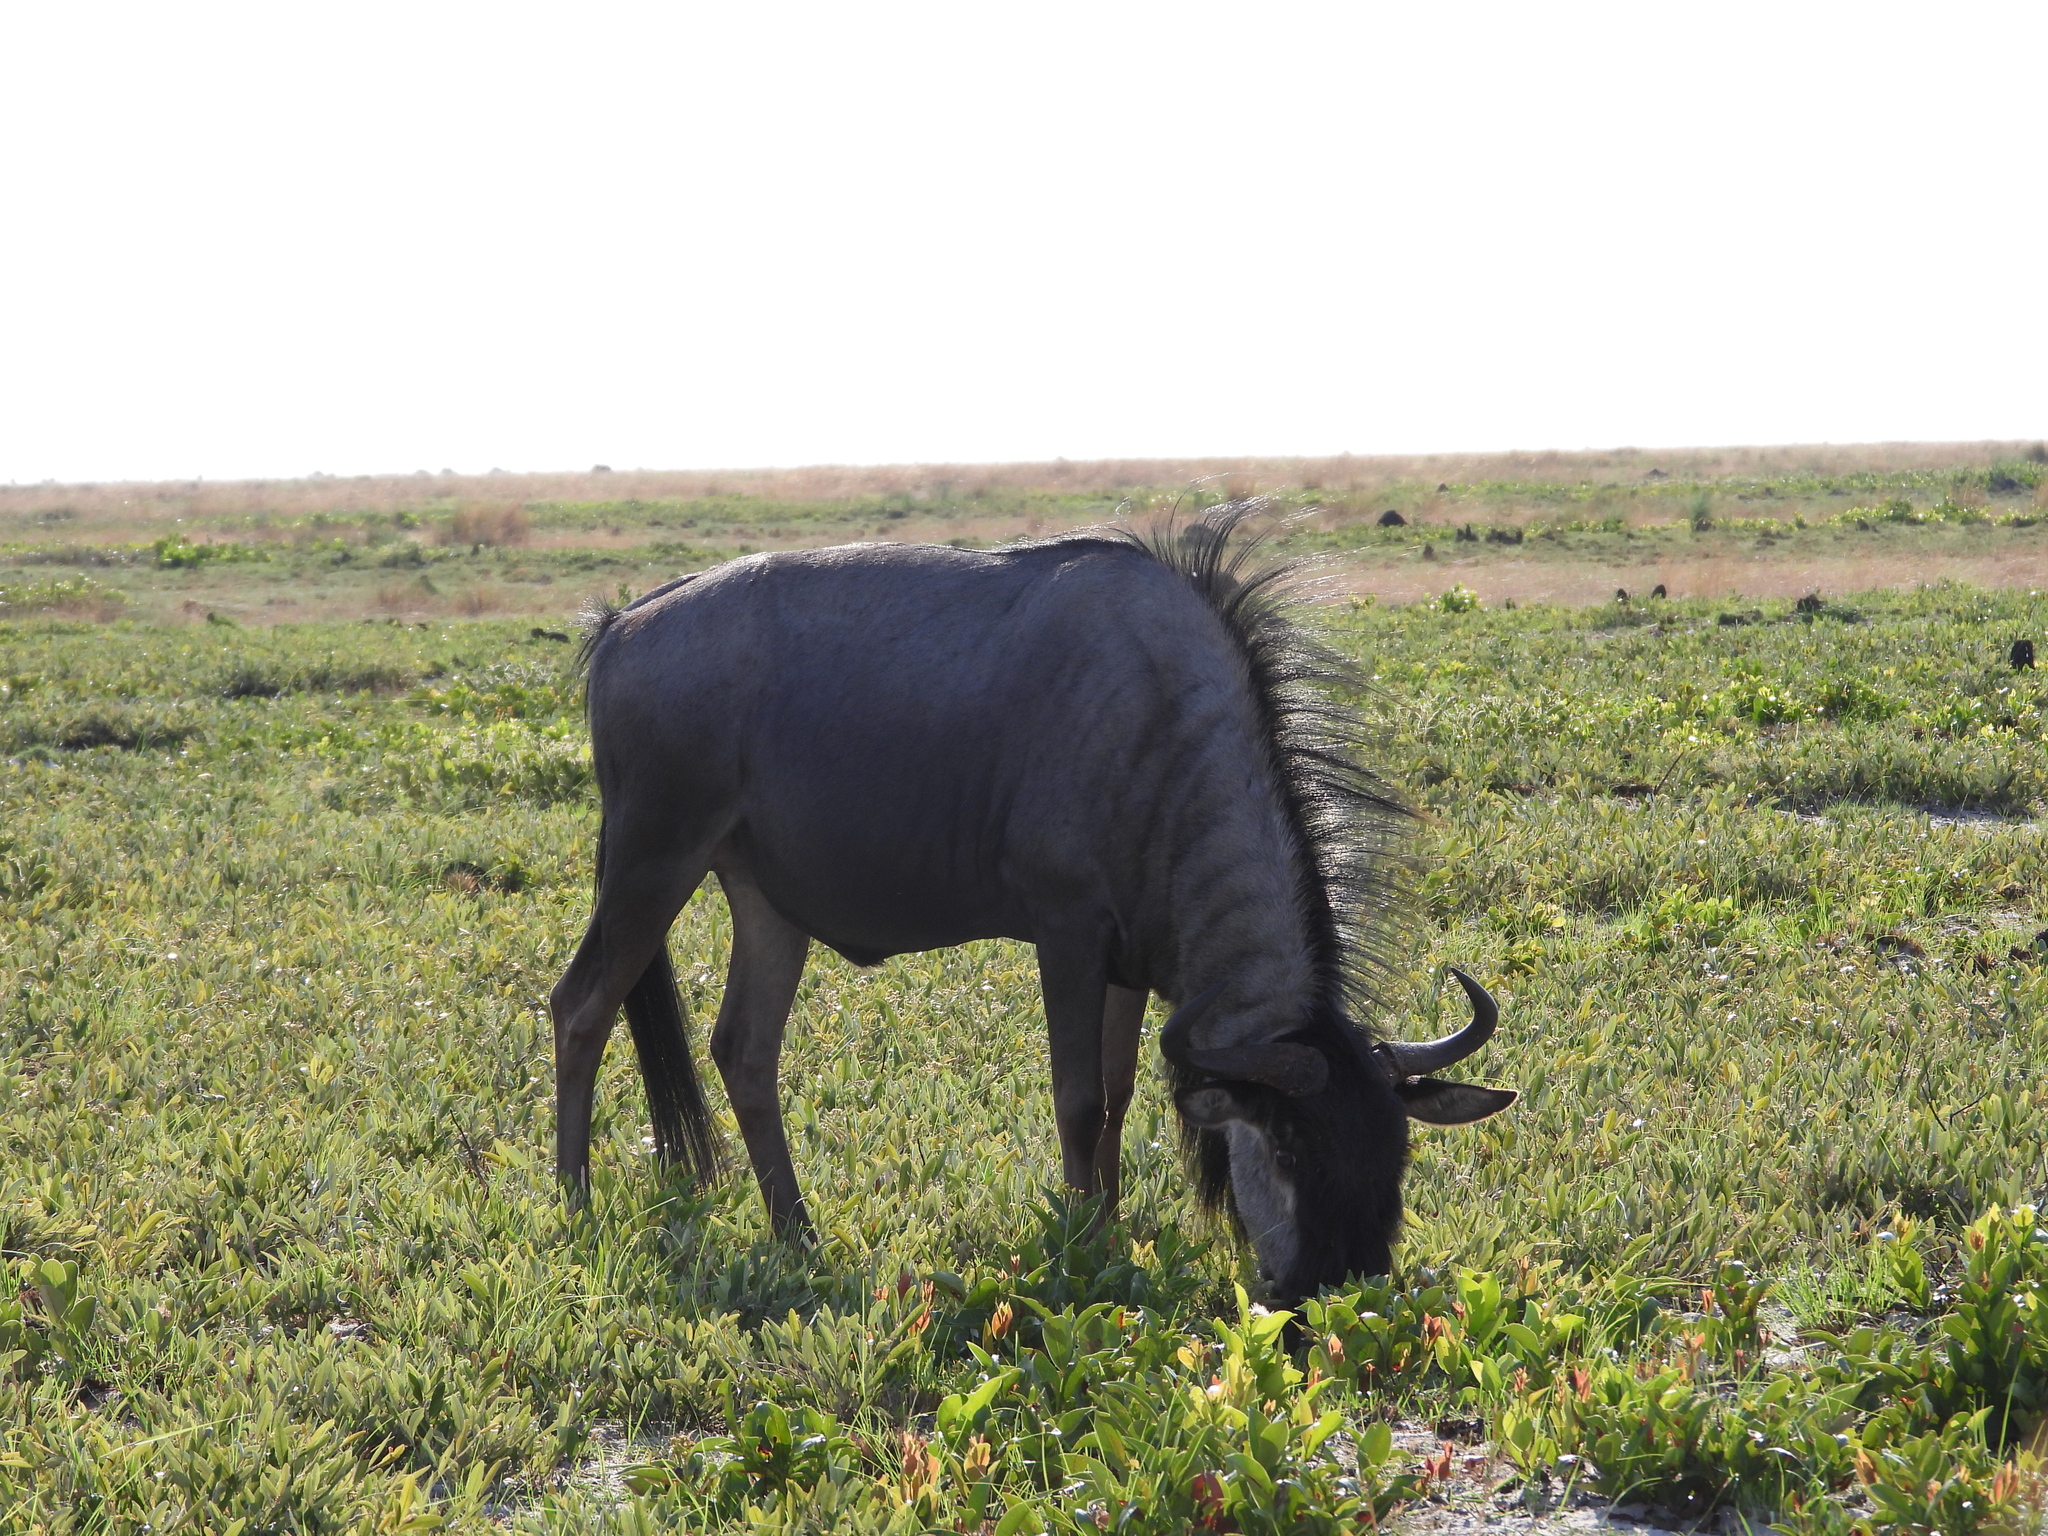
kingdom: Animalia
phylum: Chordata
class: Mammalia
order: Artiodactyla
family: Bovidae
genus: Connochaetes
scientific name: Connochaetes taurinus
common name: Blue wildebeest
